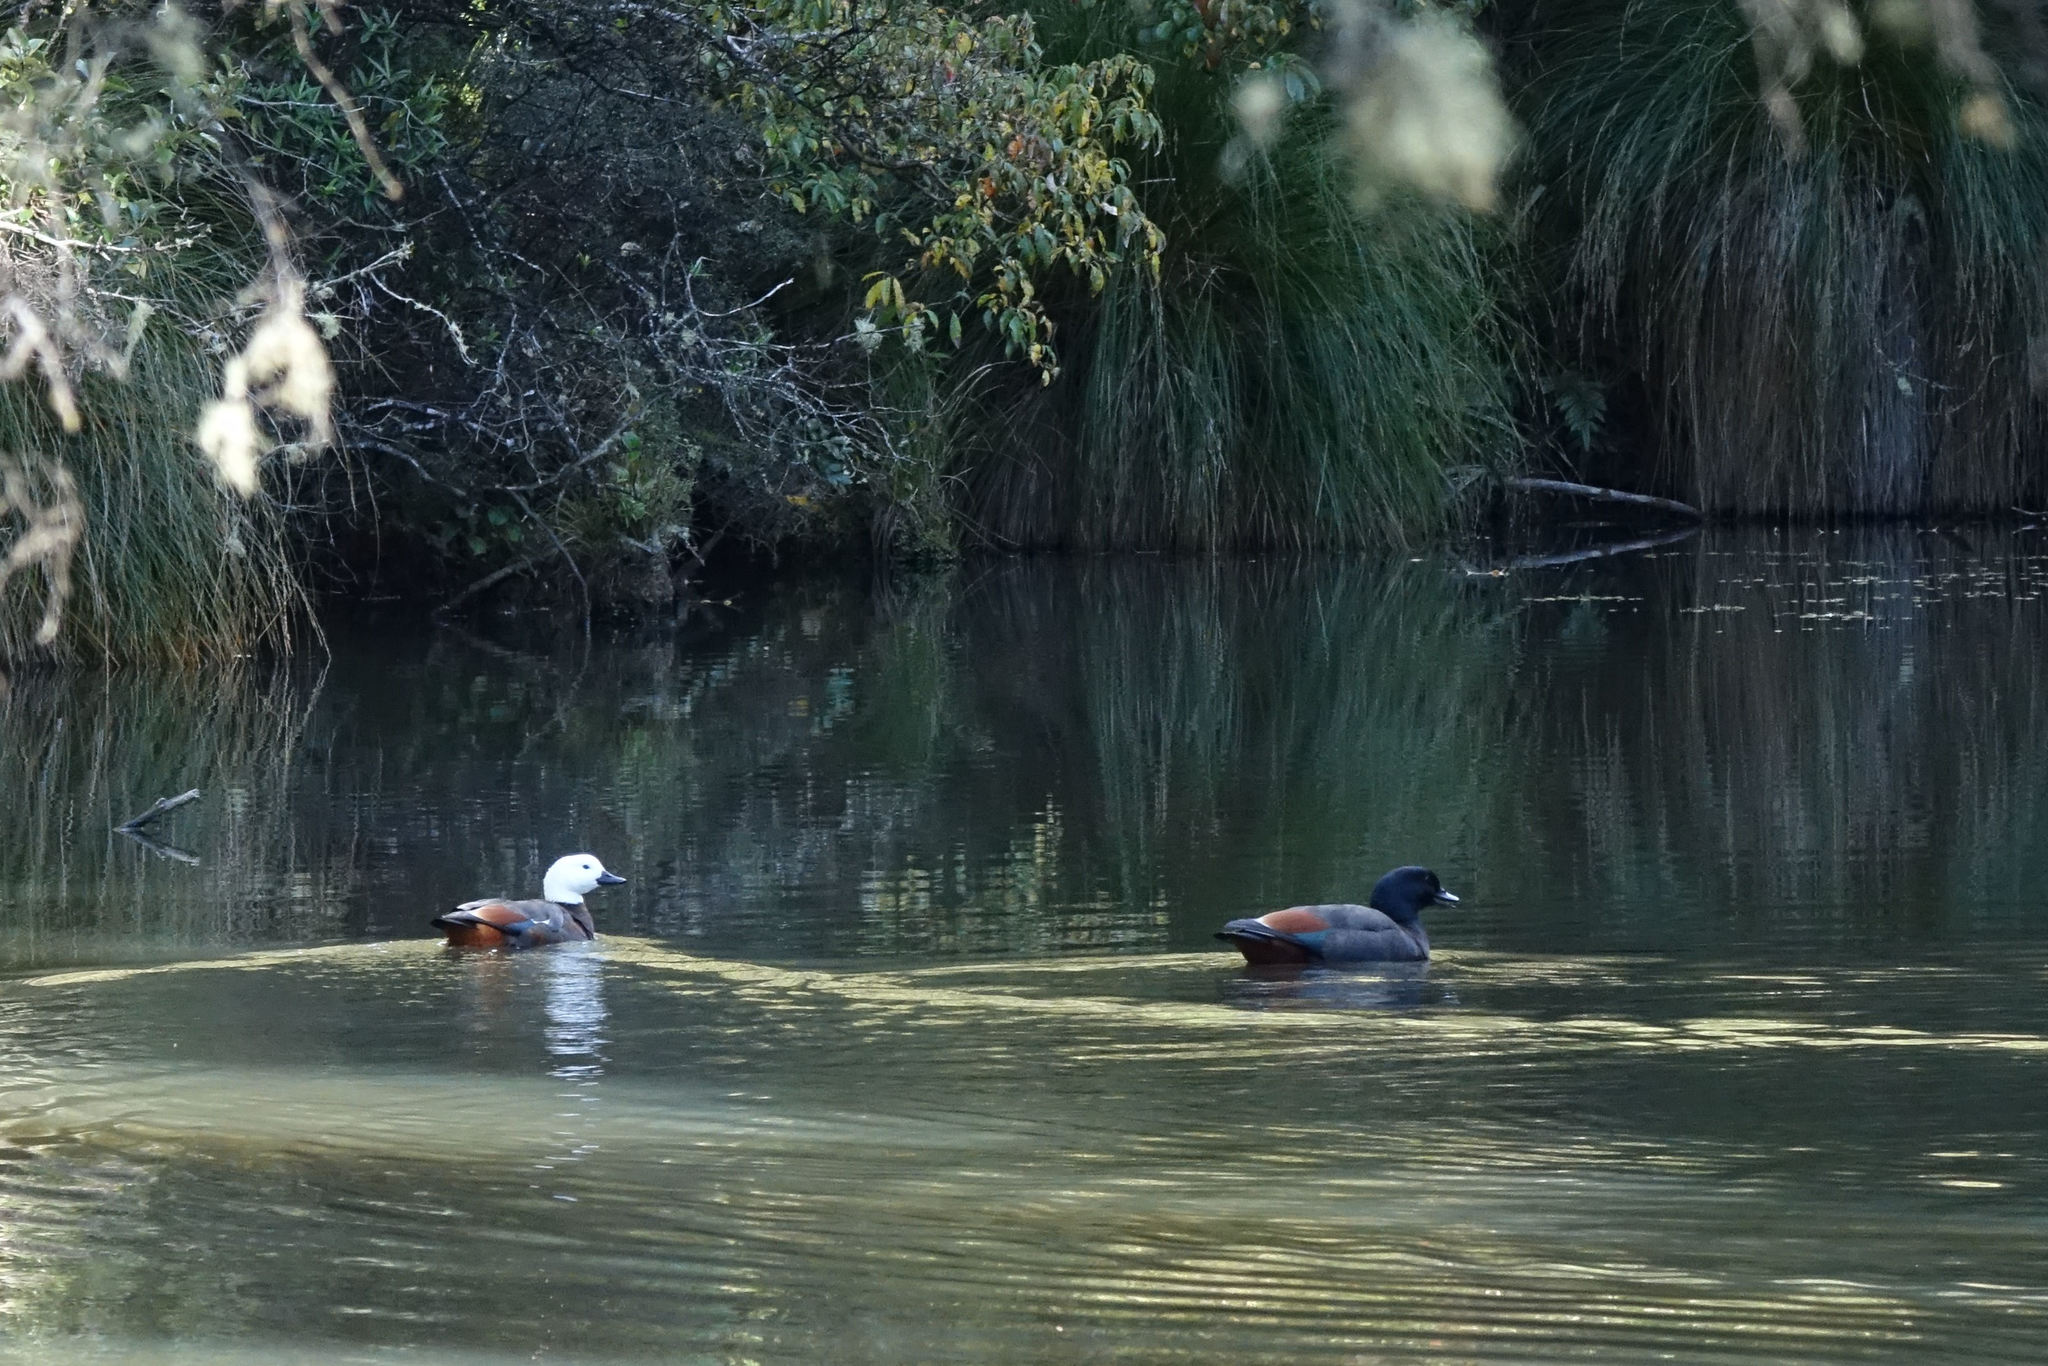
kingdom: Animalia
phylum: Chordata
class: Aves
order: Anseriformes
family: Anatidae
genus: Tadorna
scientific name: Tadorna variegata
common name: Paradise shelduck
